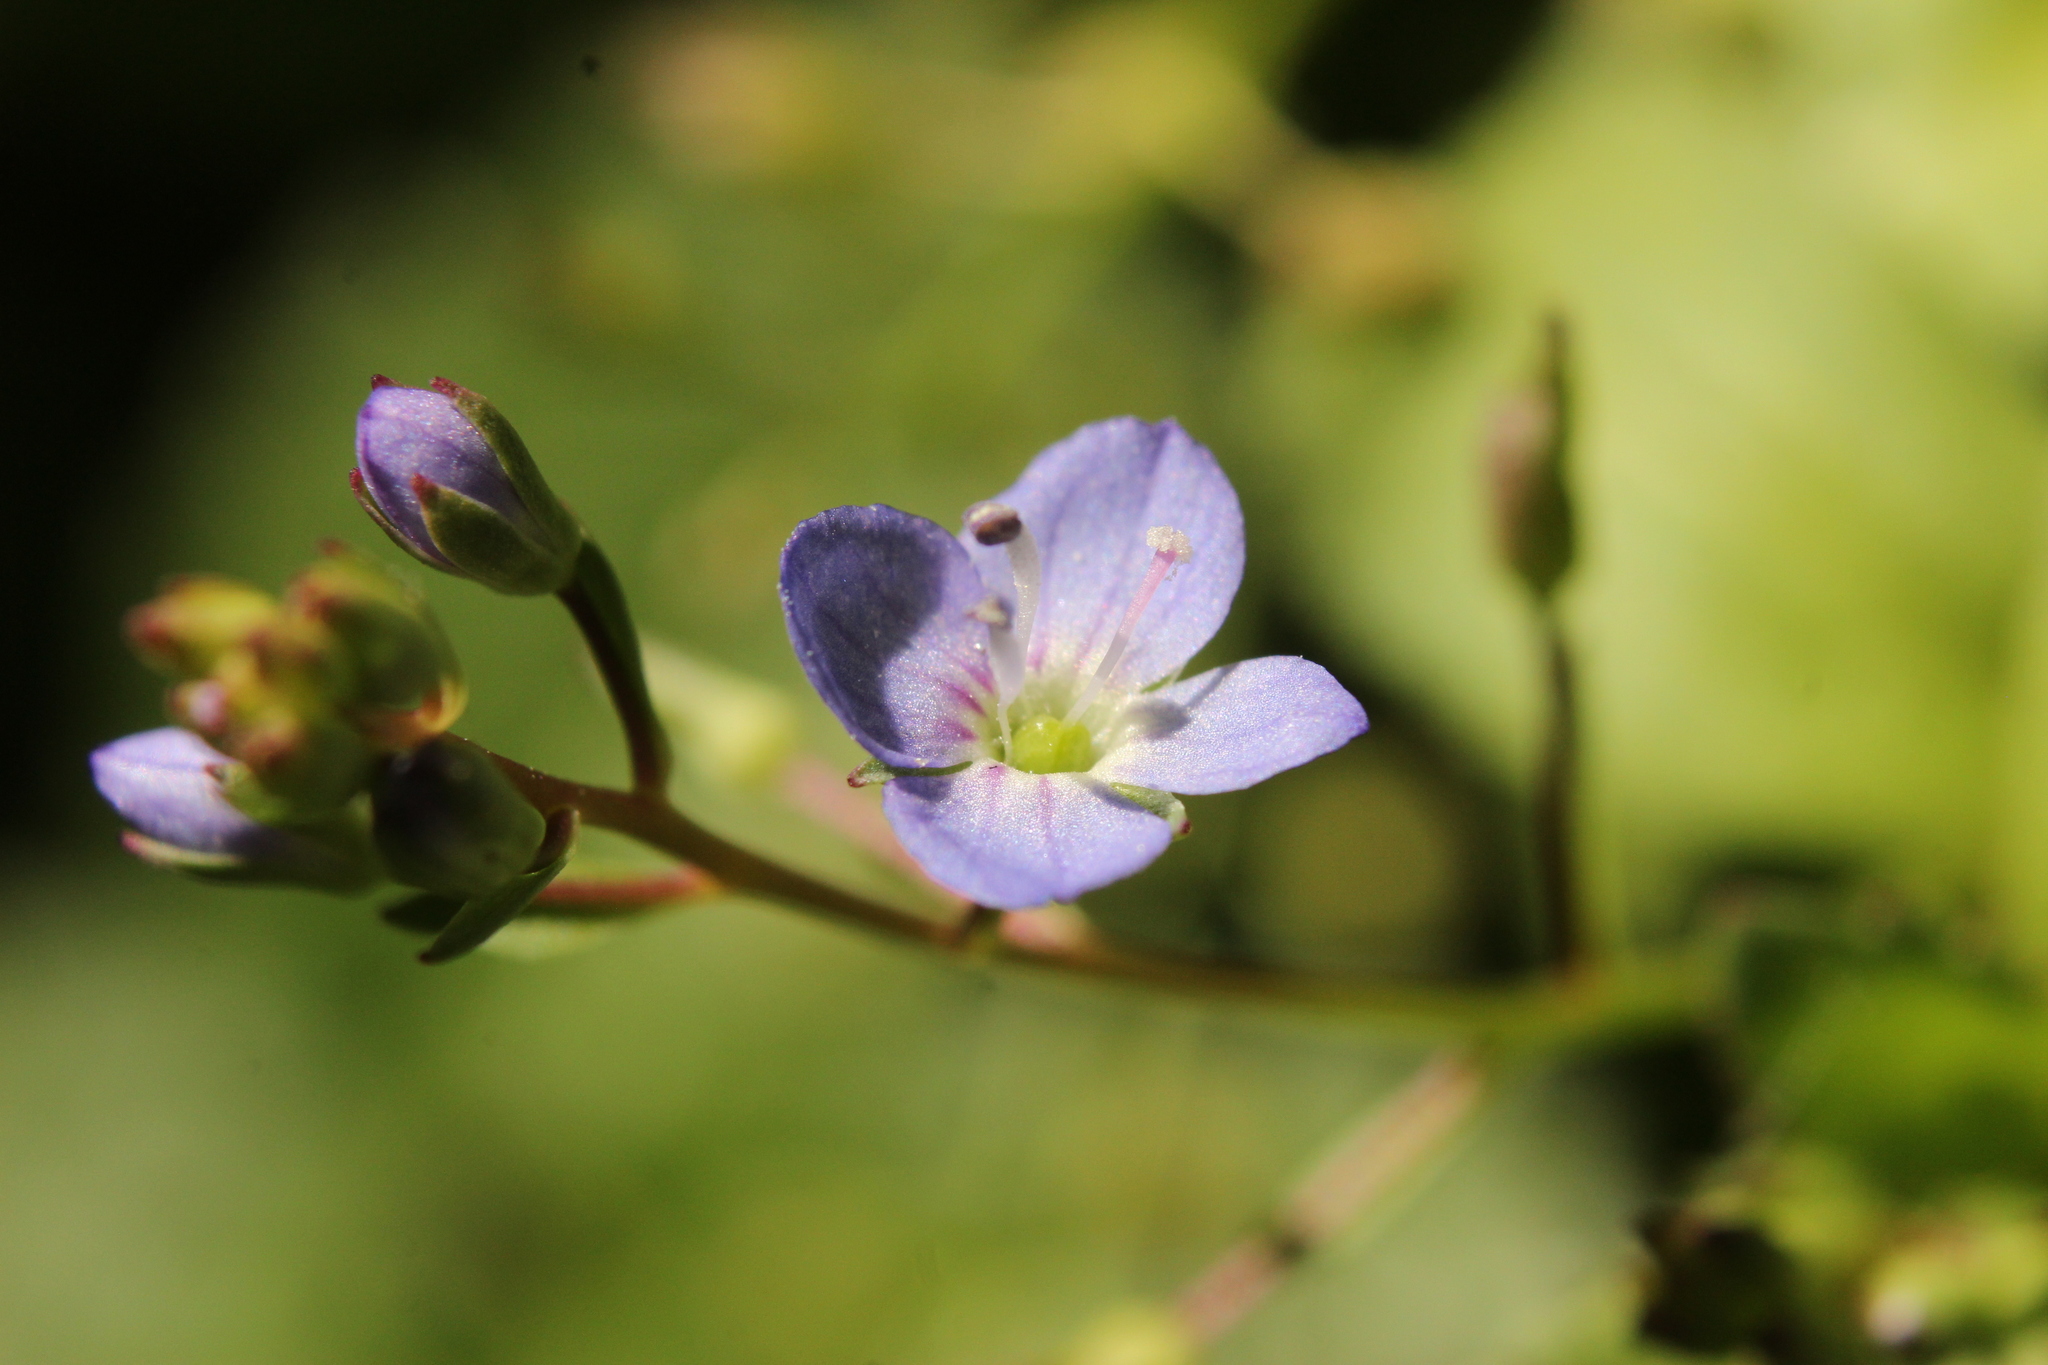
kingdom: Plantae
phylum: Tracheophyta
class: Magnoliopsida
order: Lamiales
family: Plantaginaceae
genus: Veronica
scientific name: Veronica americana
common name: American brooklime
